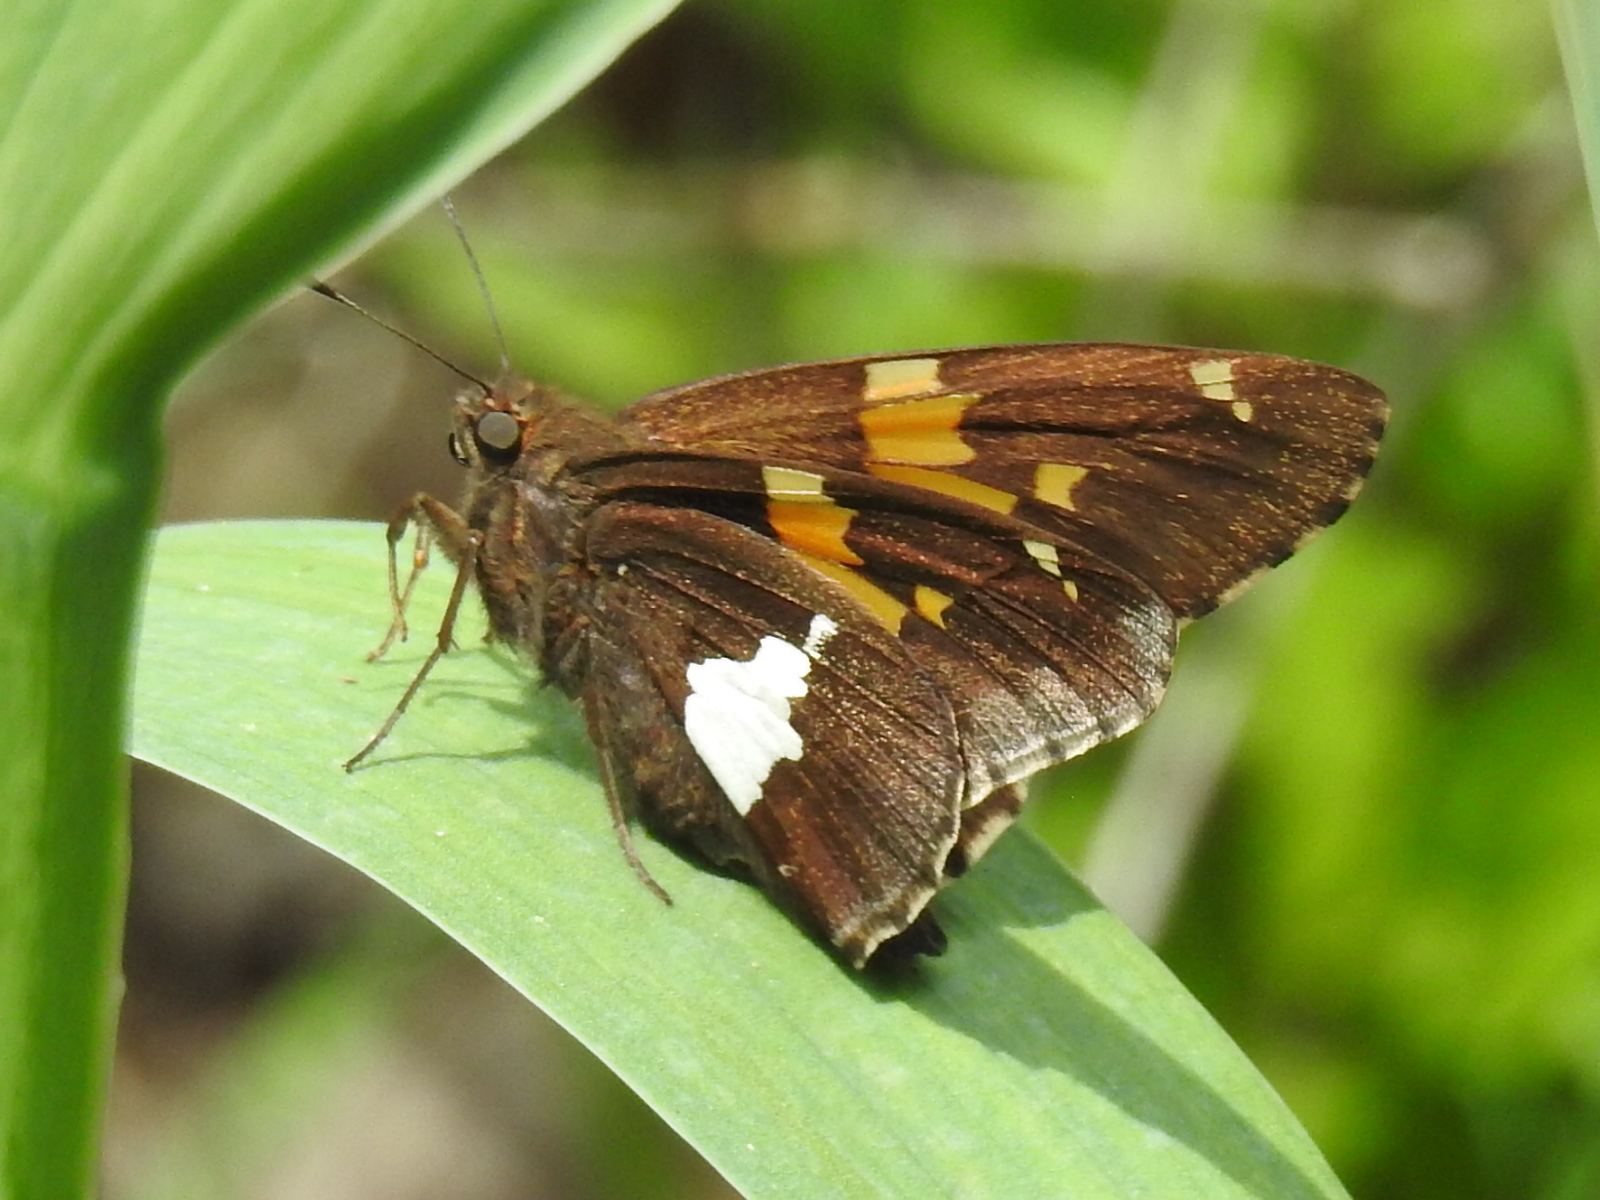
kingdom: Animalia
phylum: Arthropoda
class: Insecta
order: Lepidoptera
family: Hesperiidae
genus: Epargyreus
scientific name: Epargyreus clarus
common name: Silver-spotted skipper
